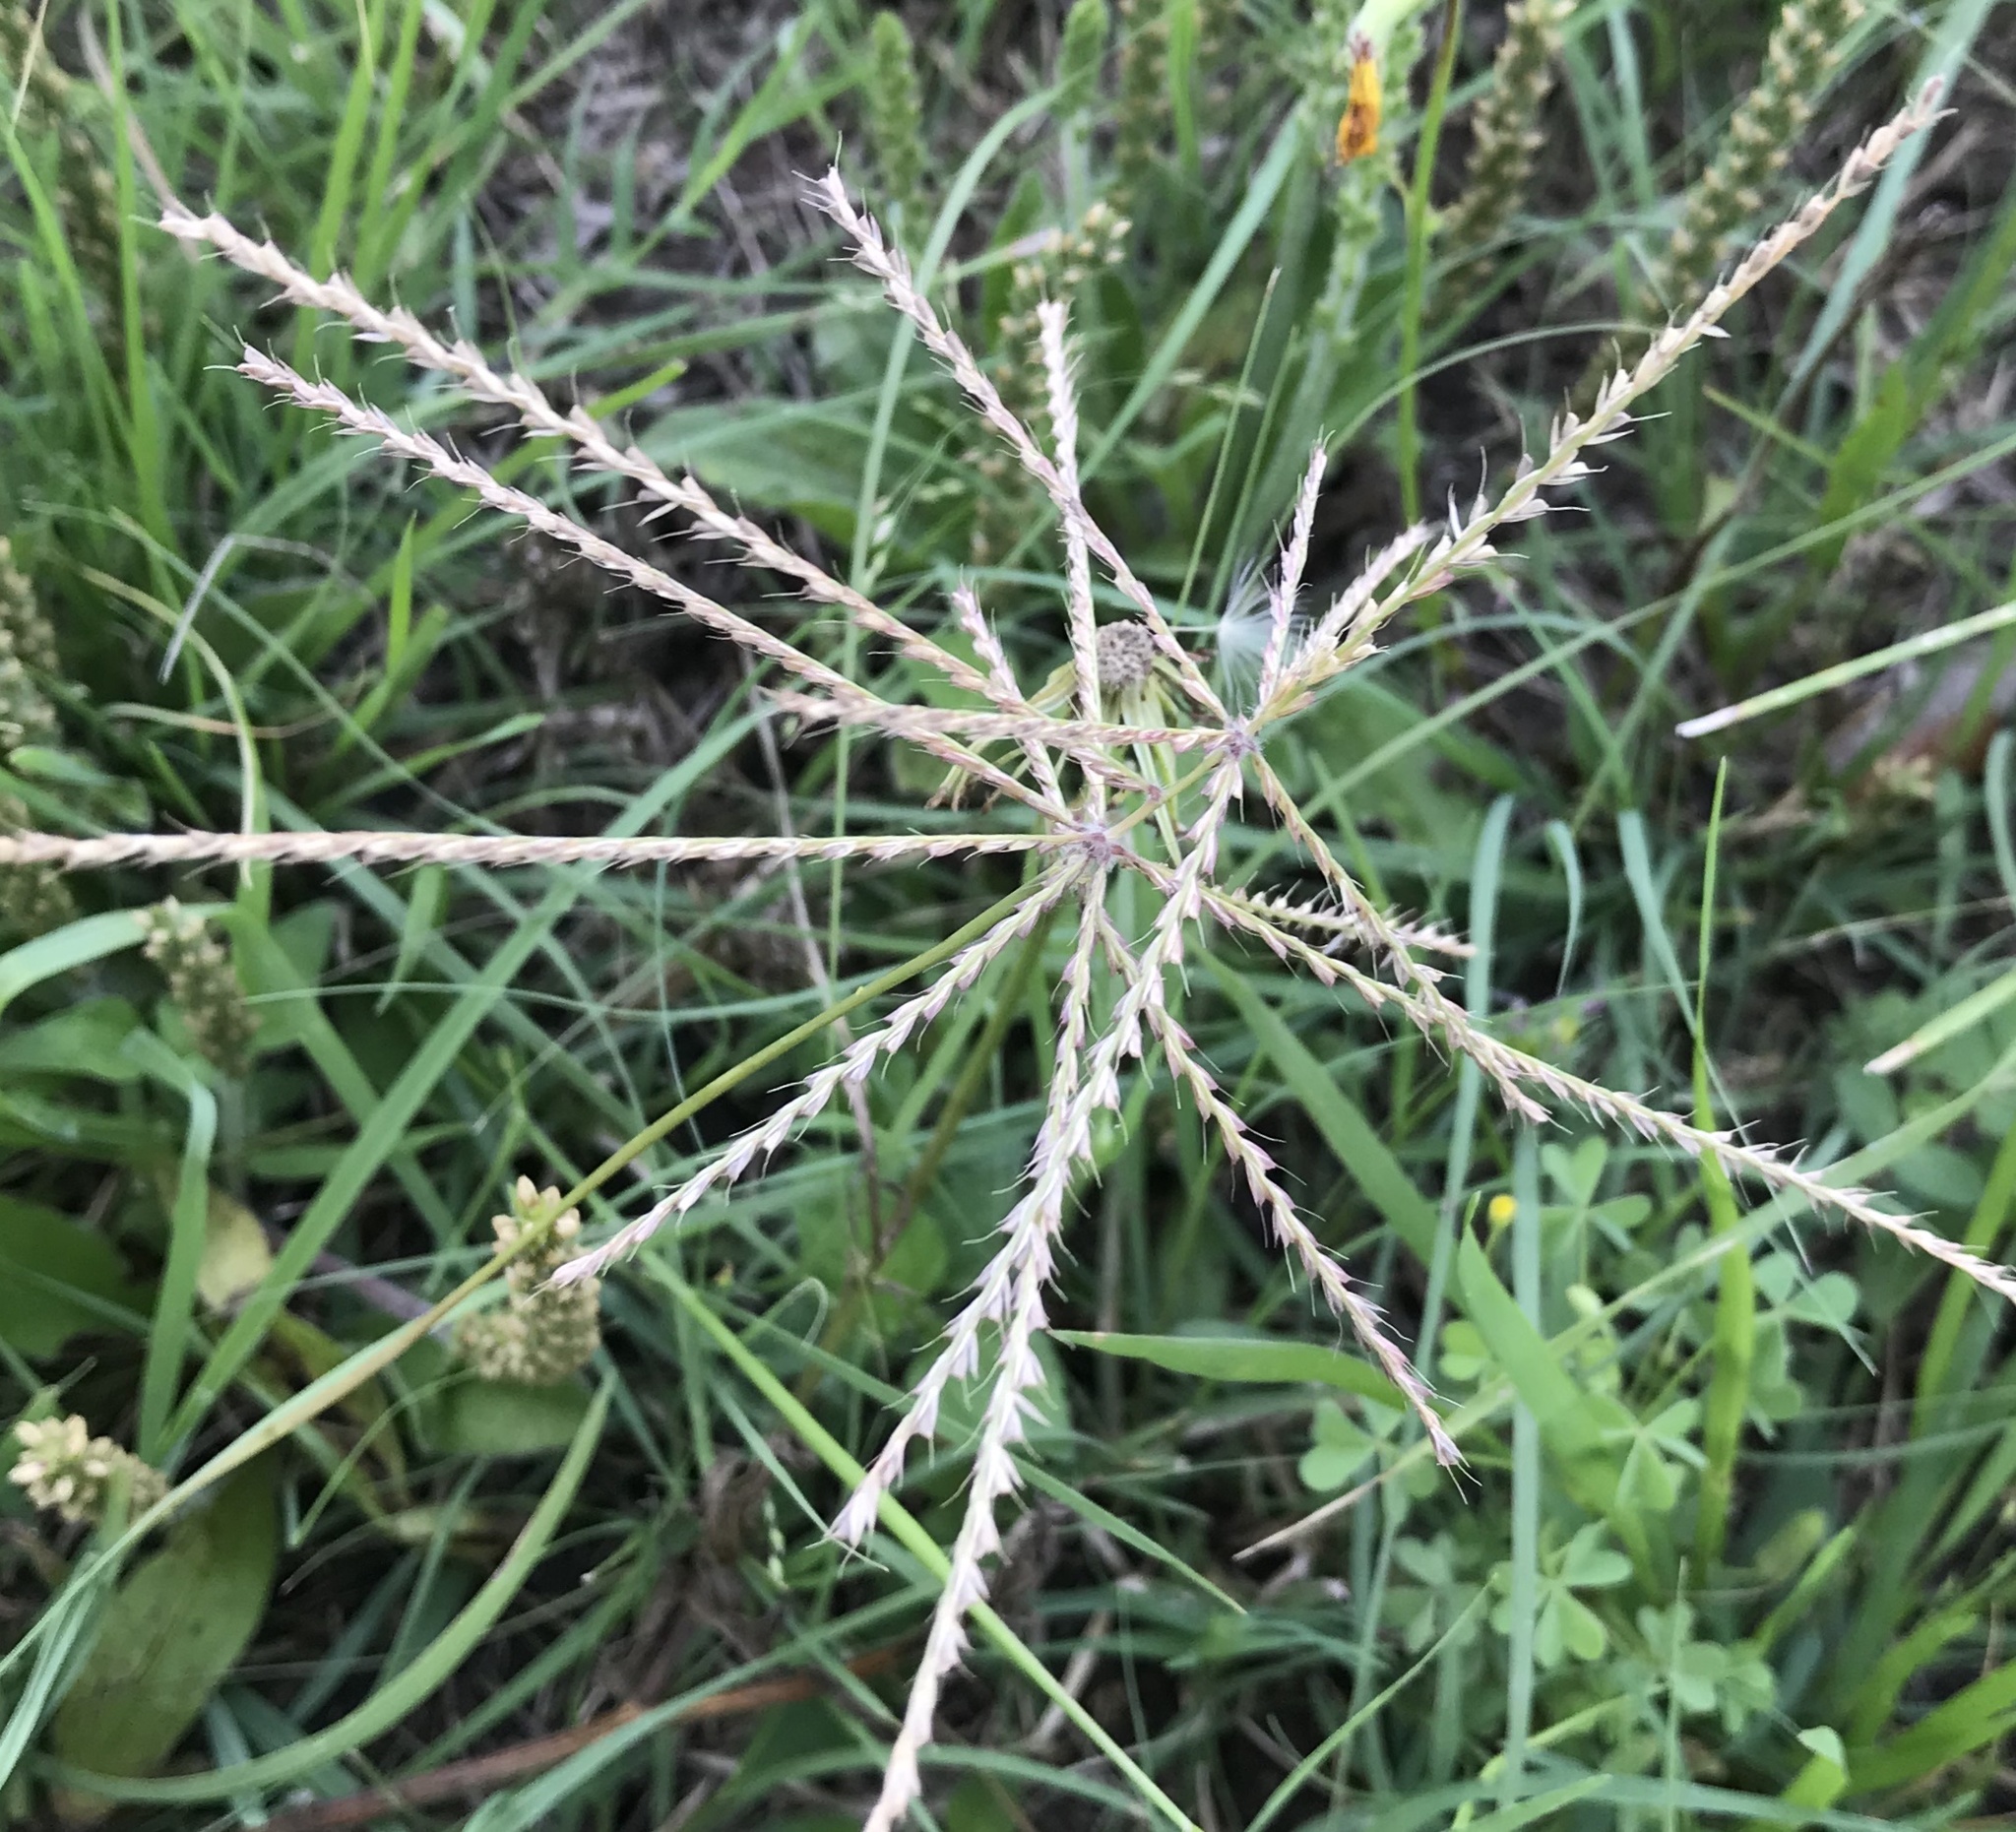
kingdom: Plantae
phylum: Tracheophyta
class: Liliopsida
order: Poales
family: Poaceae
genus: Chloris
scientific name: Chloris verticillata
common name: Tumble windmill grass
